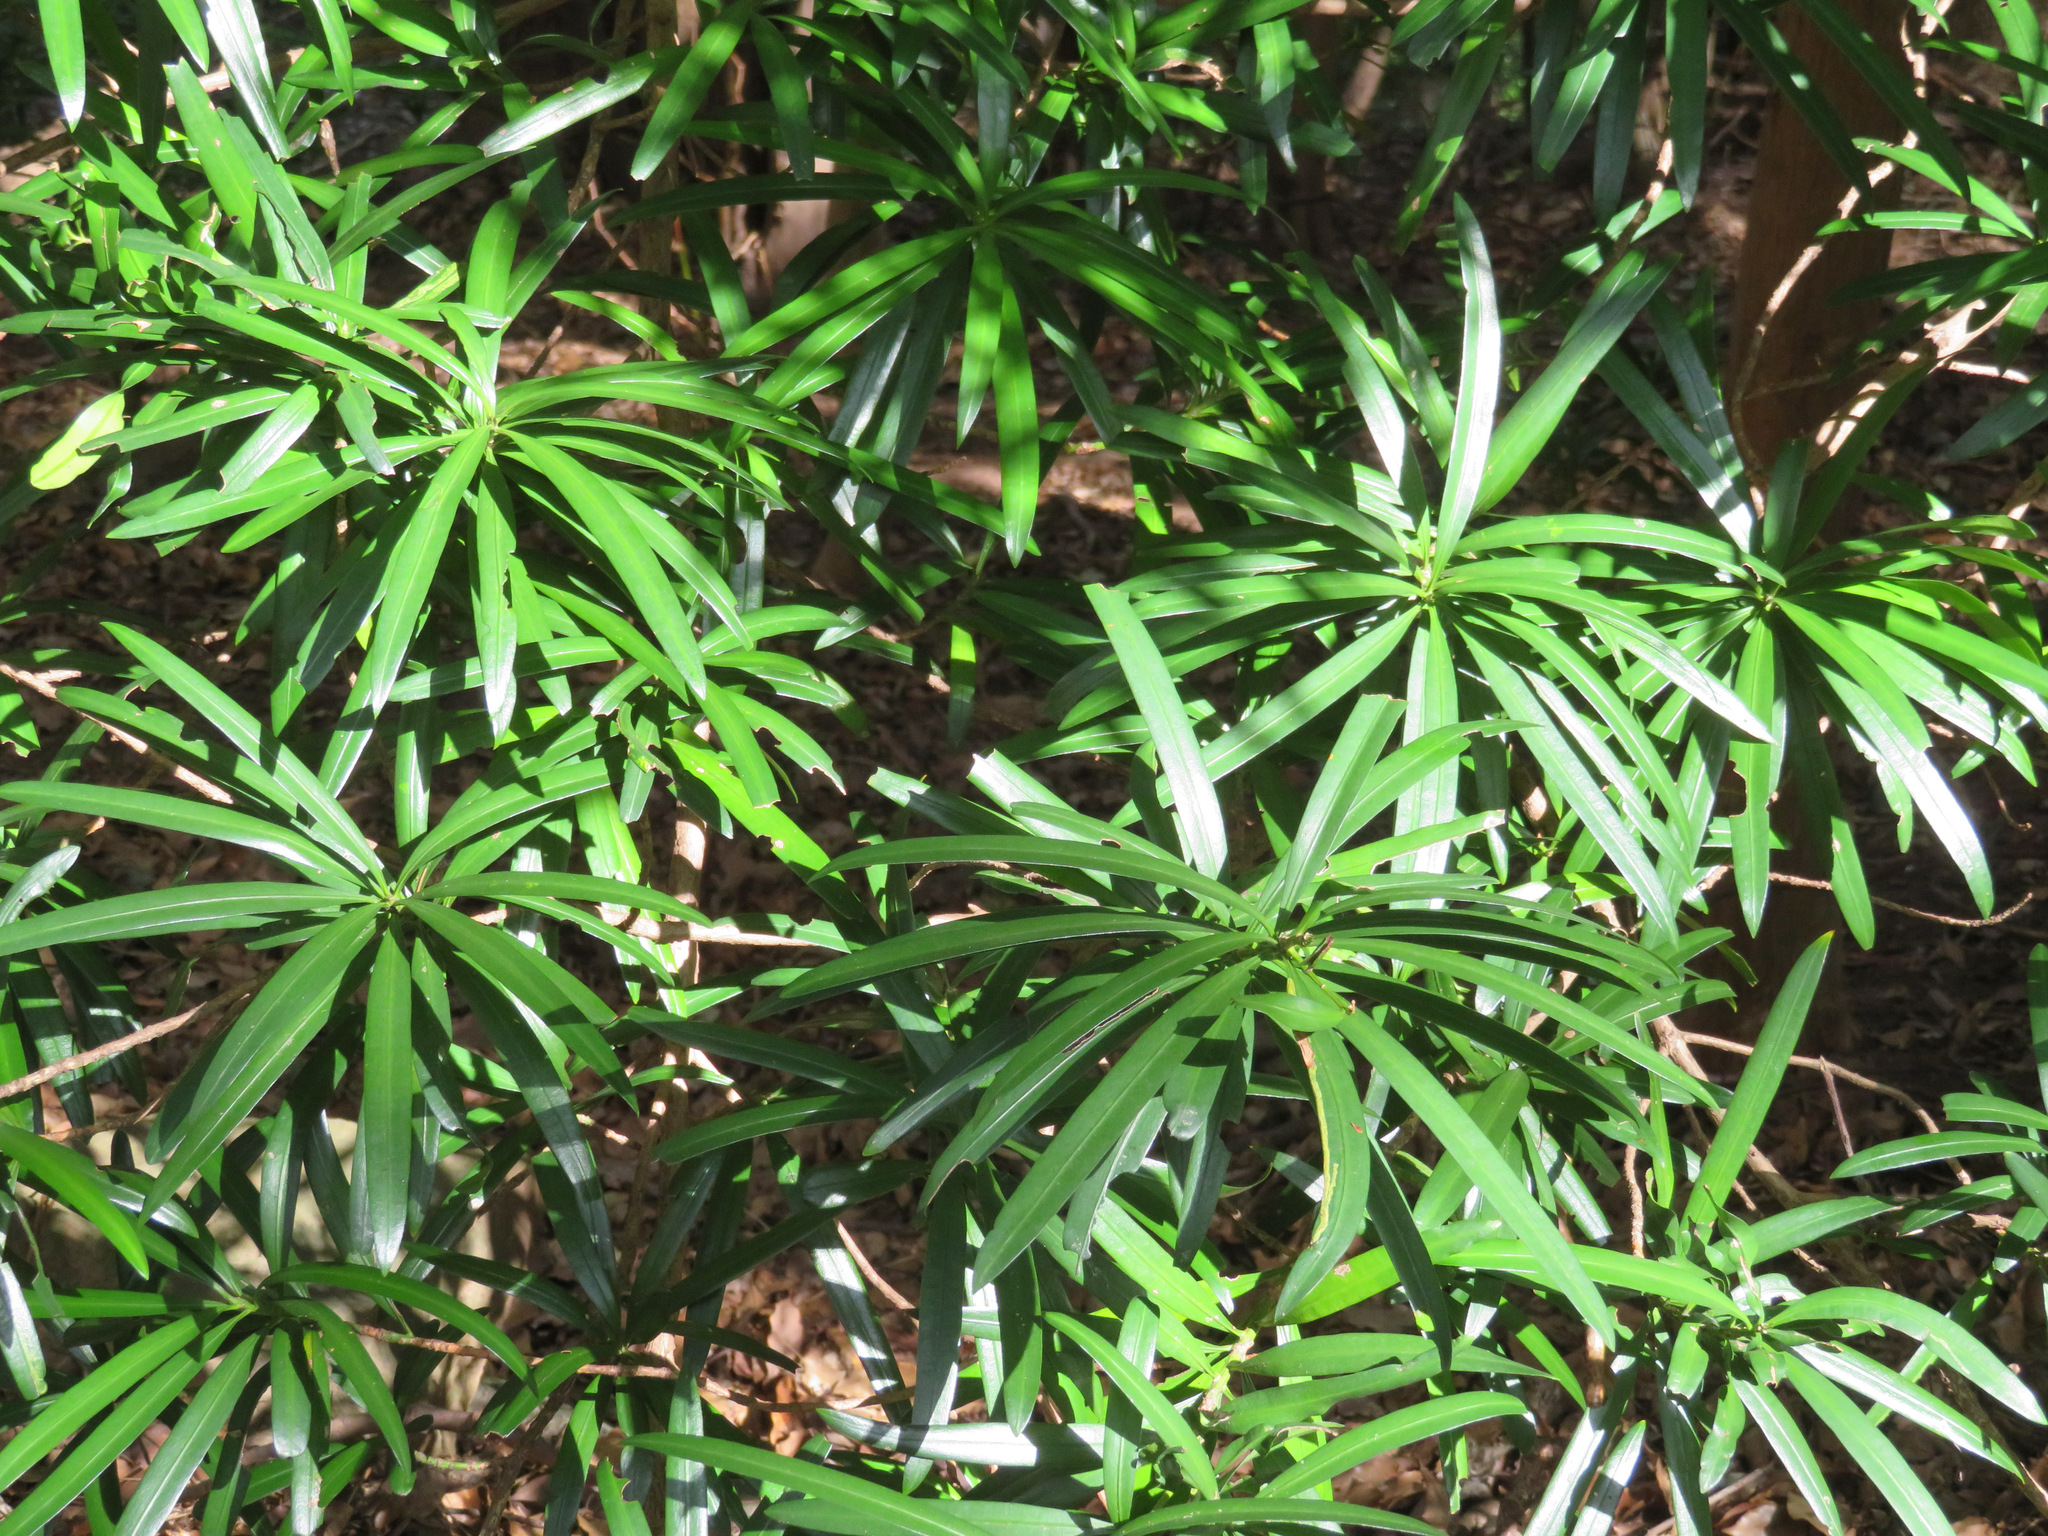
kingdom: Plantae
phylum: Tracheophyta
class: Pinopsida
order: Pinales
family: Podocarpaceae
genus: Podocarpus
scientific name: Podocarpus macrophyllus
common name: Japanese yew
